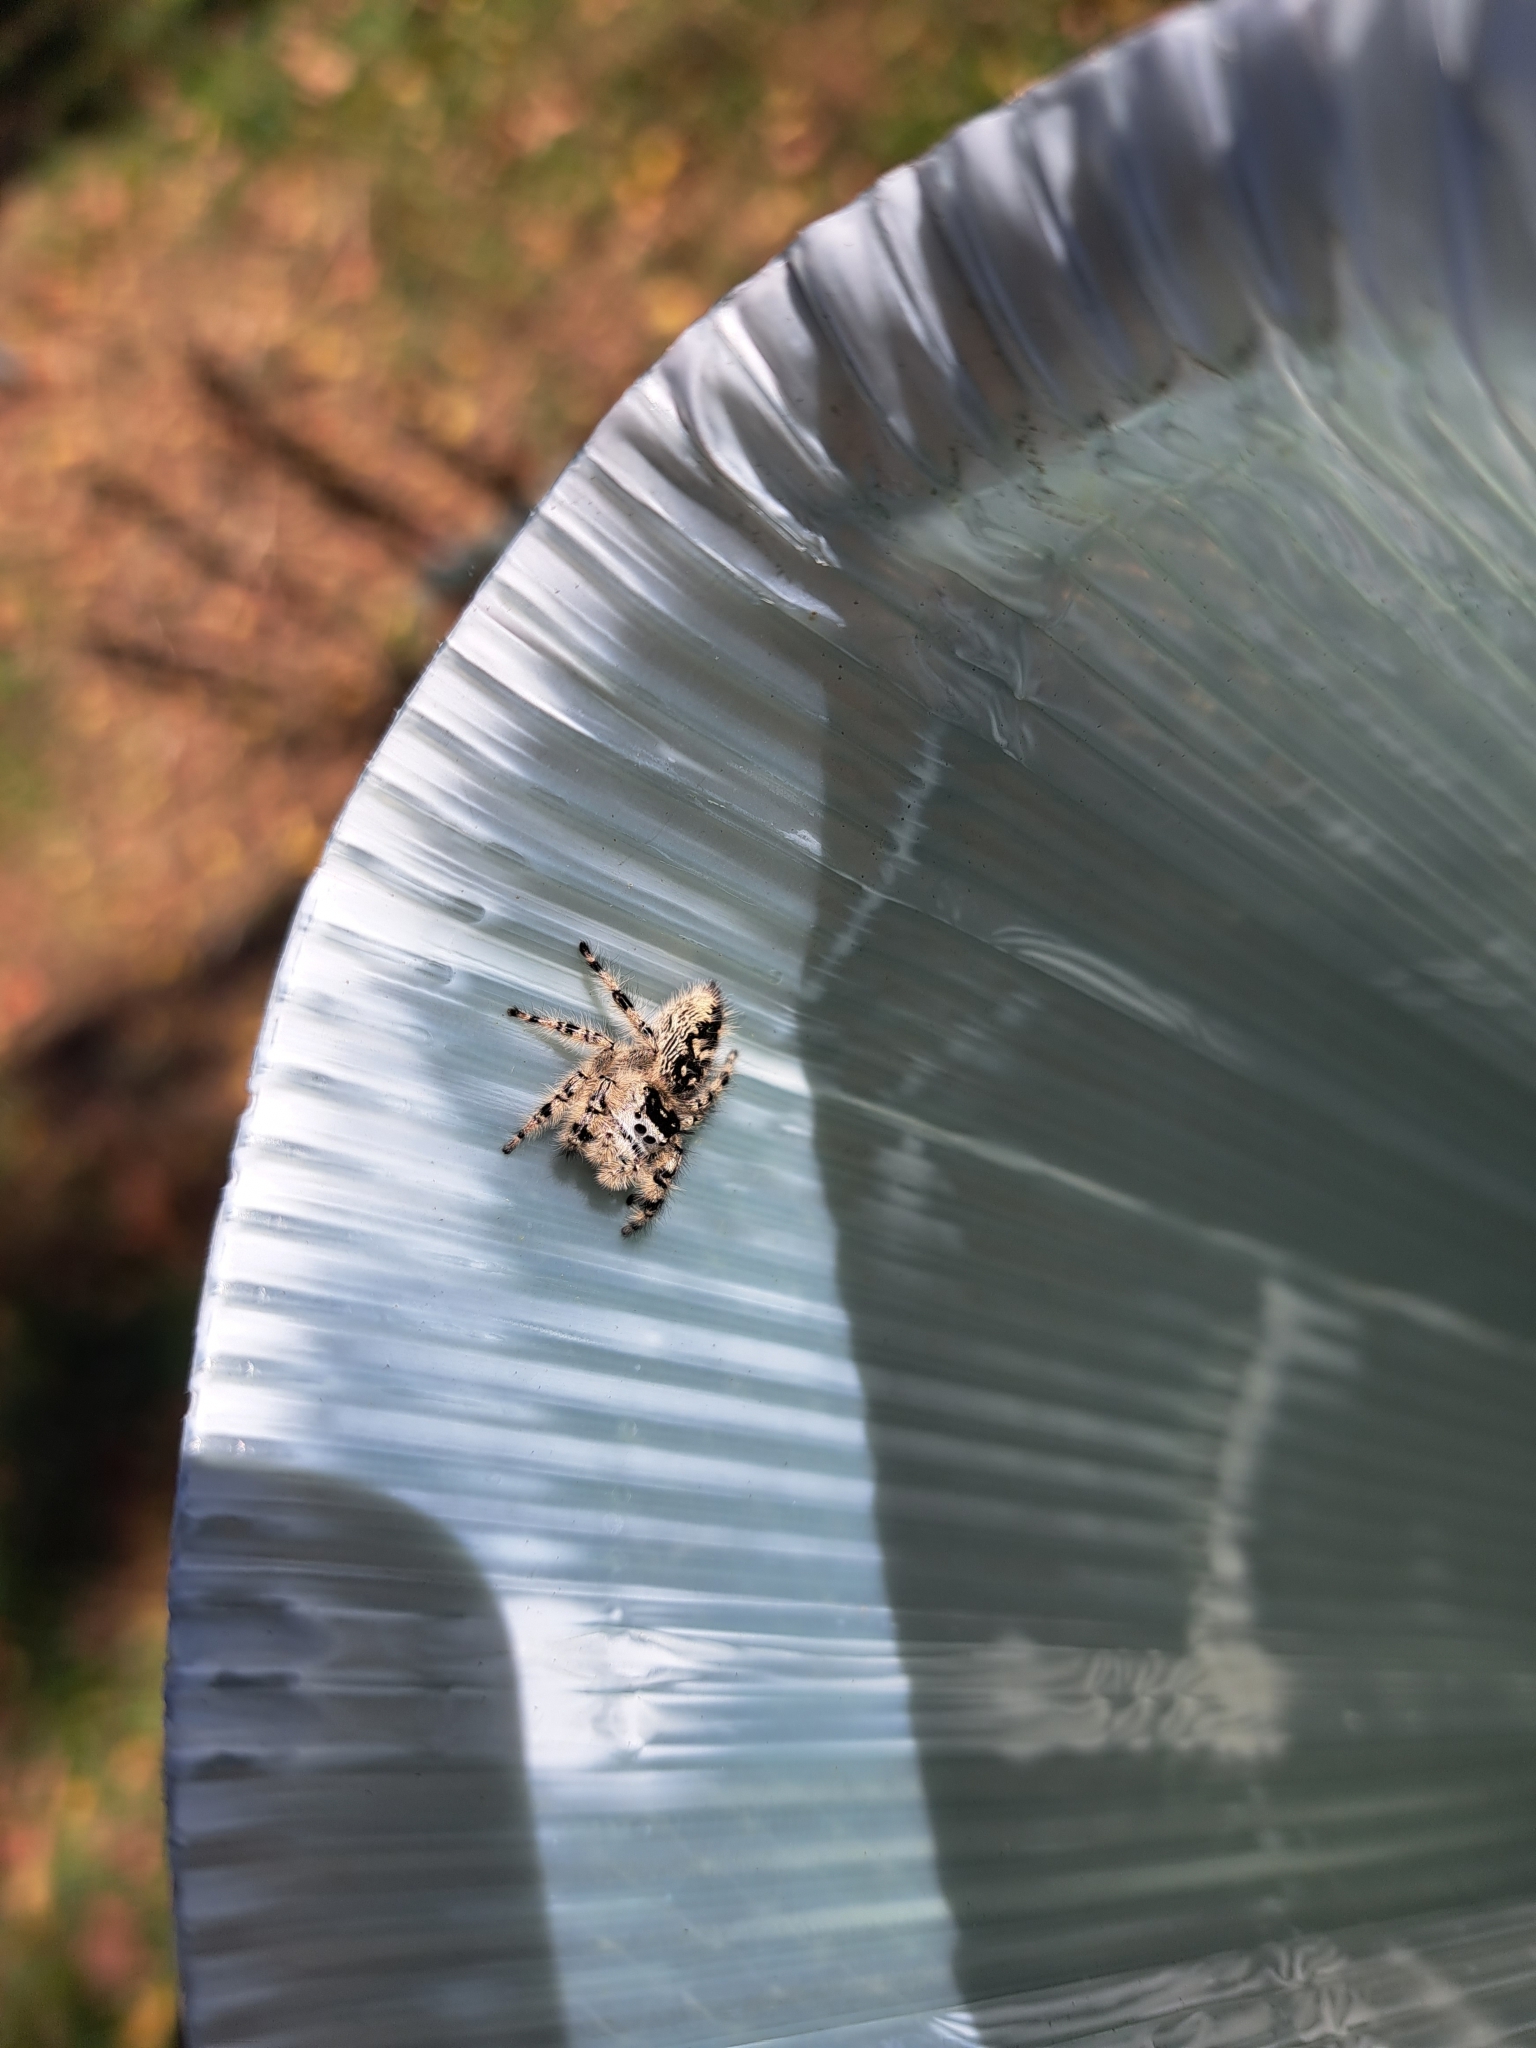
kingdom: Animalia
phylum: Arthropoda
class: Arachnida
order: Araneae
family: Salticidae
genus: Phidippus
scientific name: Phidippus otiosus
